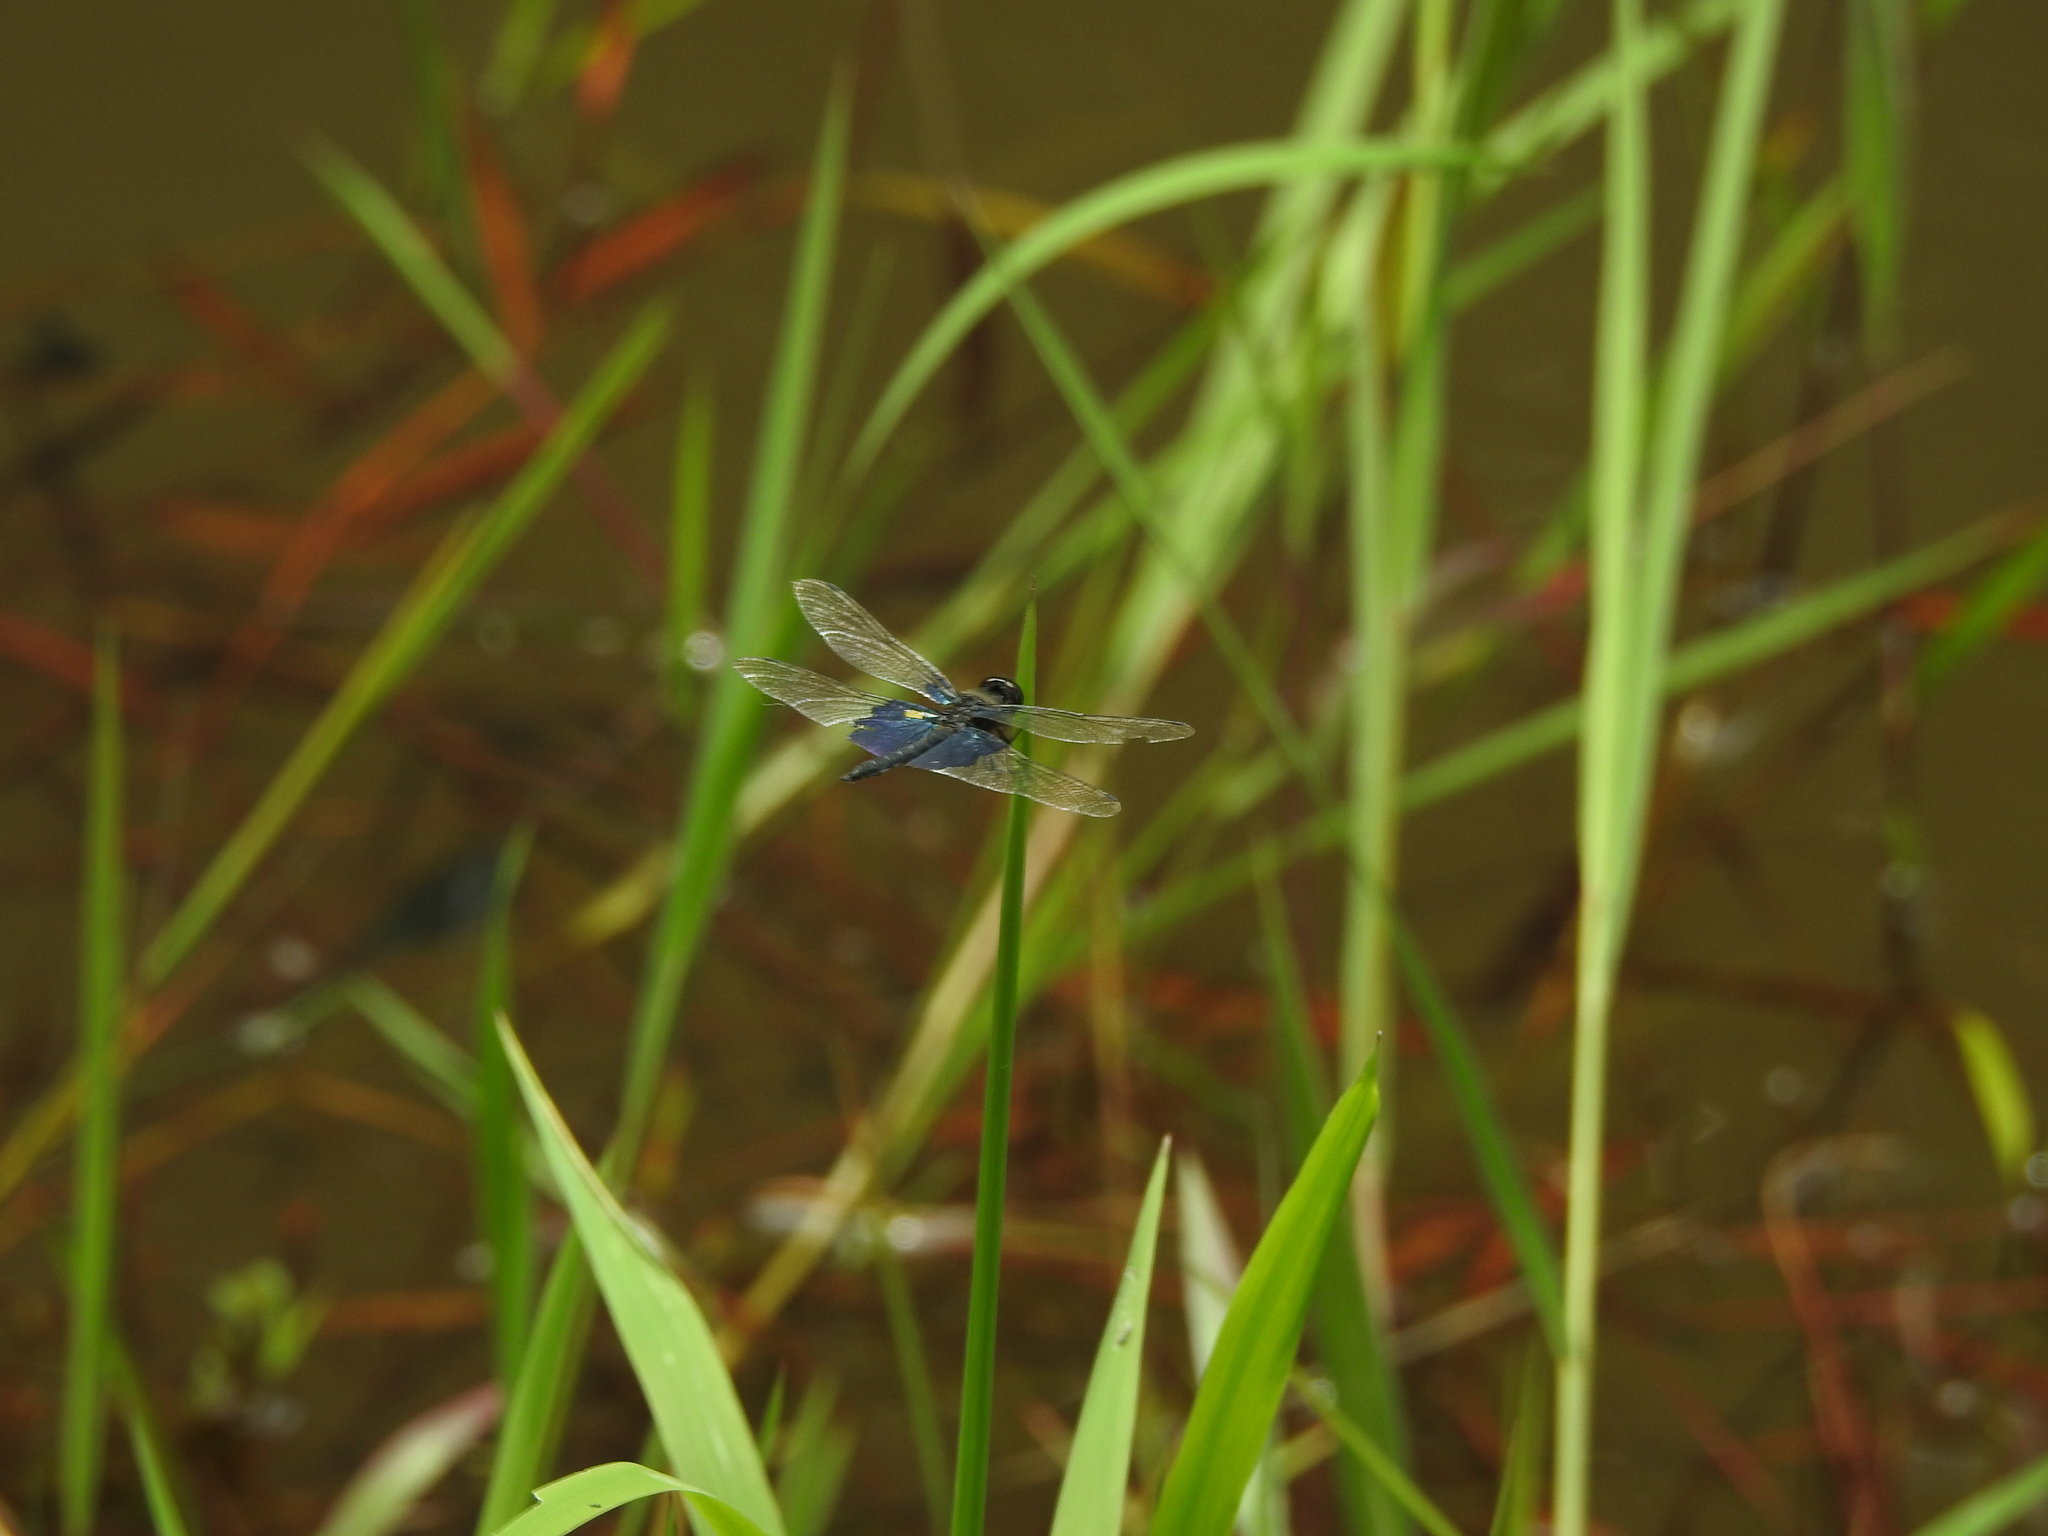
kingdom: Animalia
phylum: Arthropoda
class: Insecta
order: Odonata
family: Libellulidae
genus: Rhyothemis
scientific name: Rhyothemis triangularis
